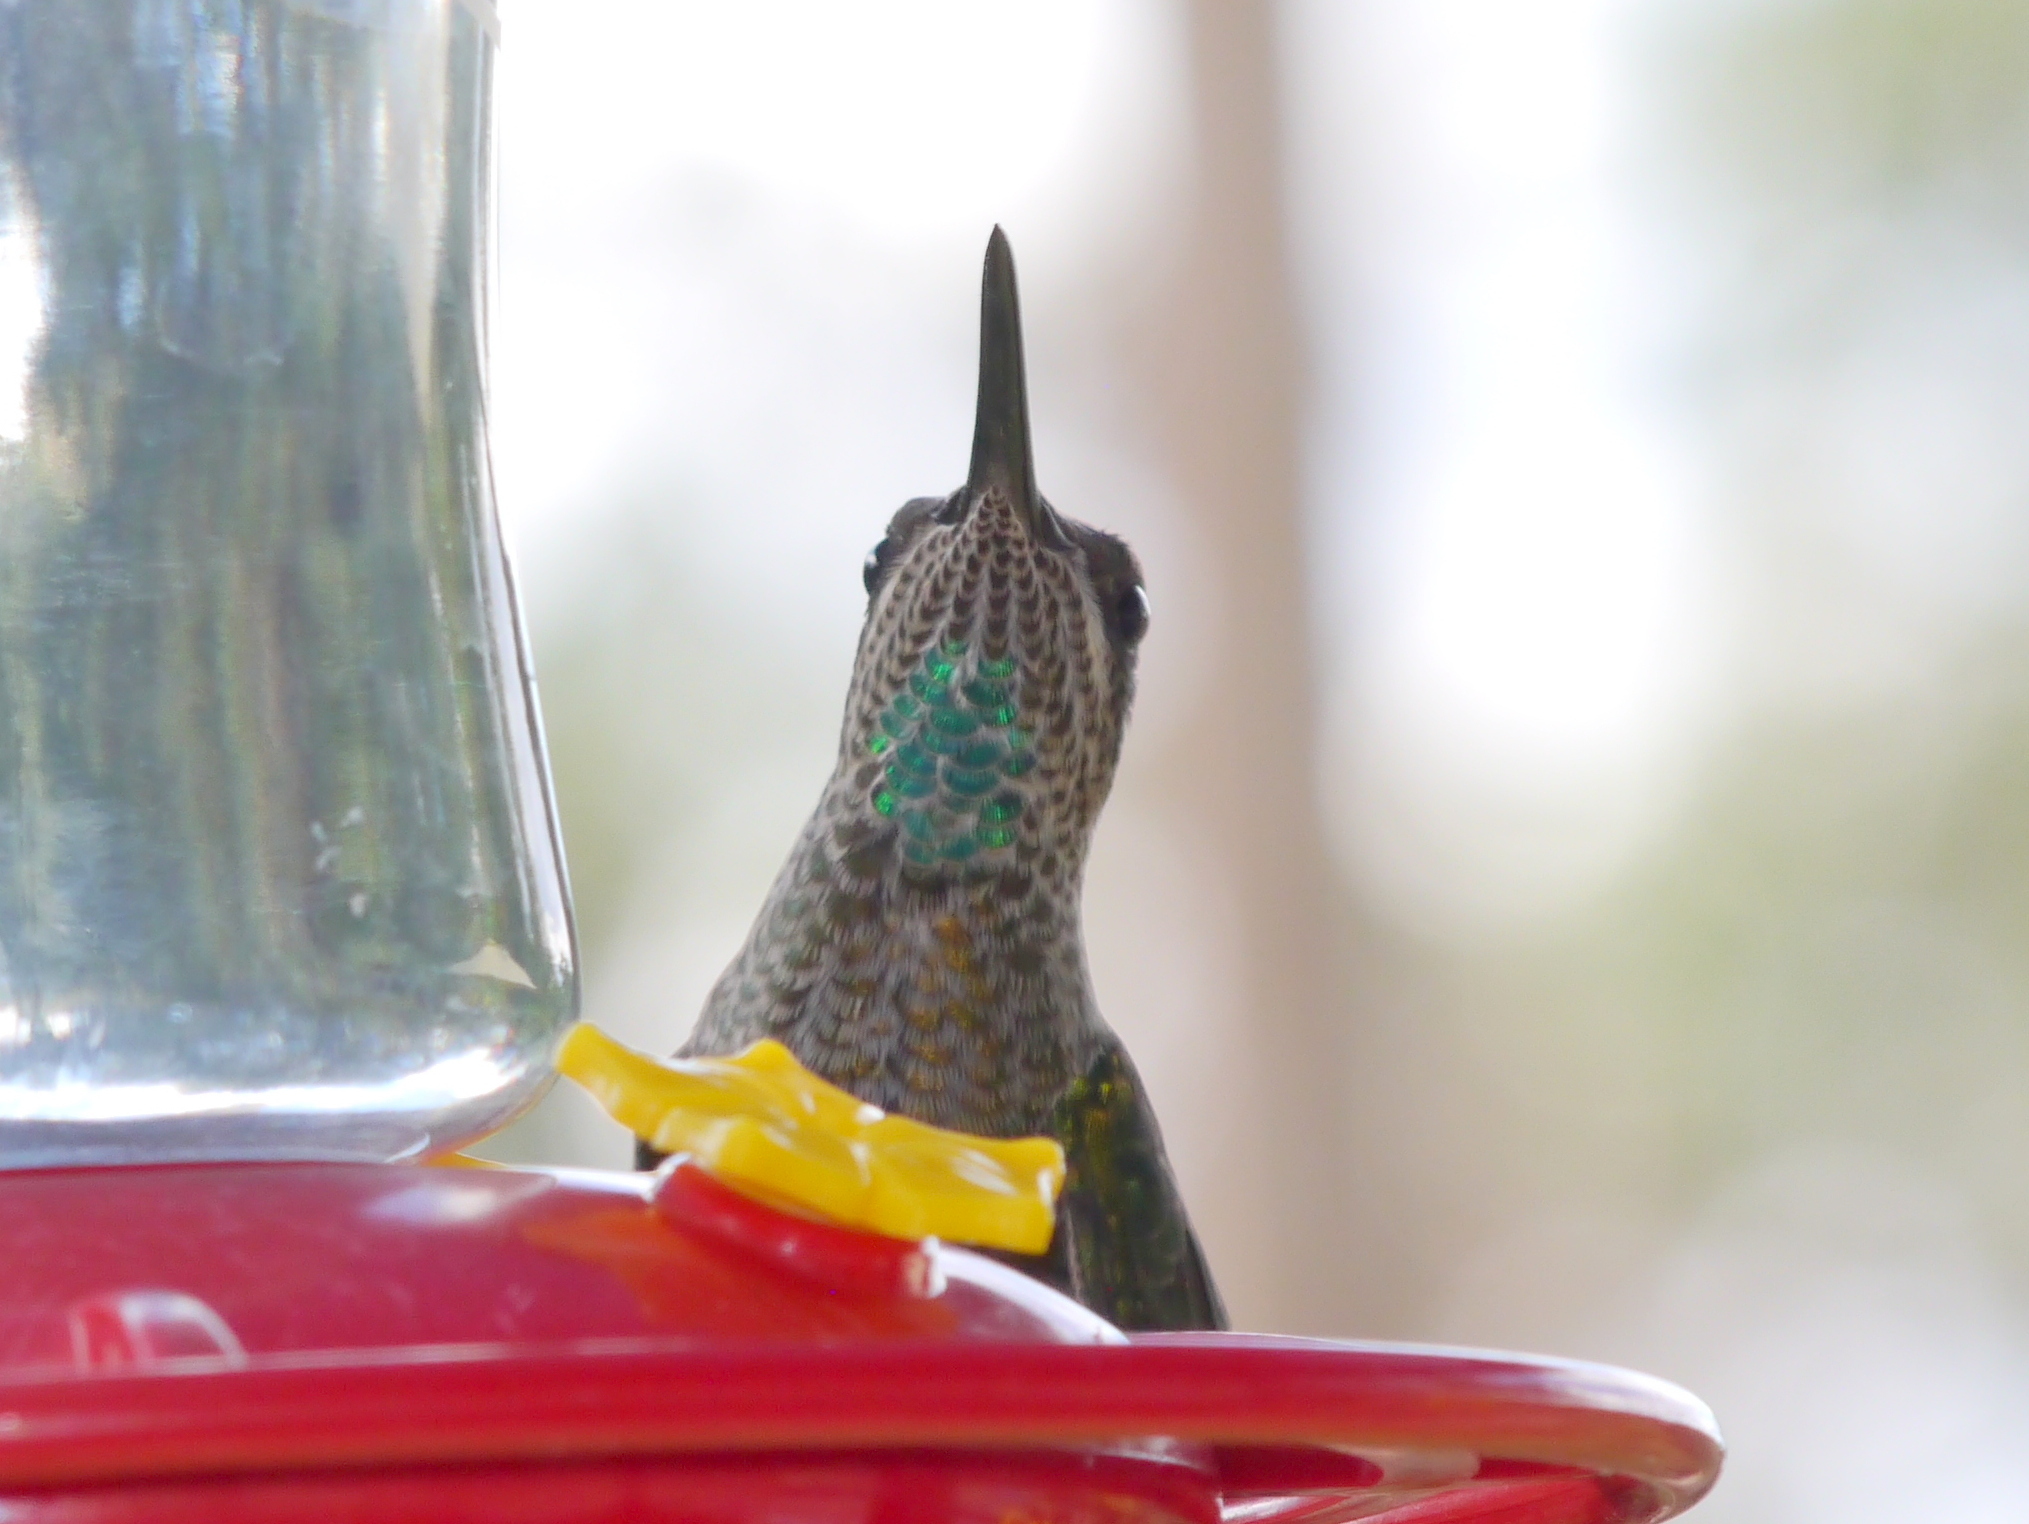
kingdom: Animalia
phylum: Chordata
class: Aves
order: Apodiformes
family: Trochilidae
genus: Eugenes
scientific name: Eugenes fulgens
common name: Magnificent hummingbird
